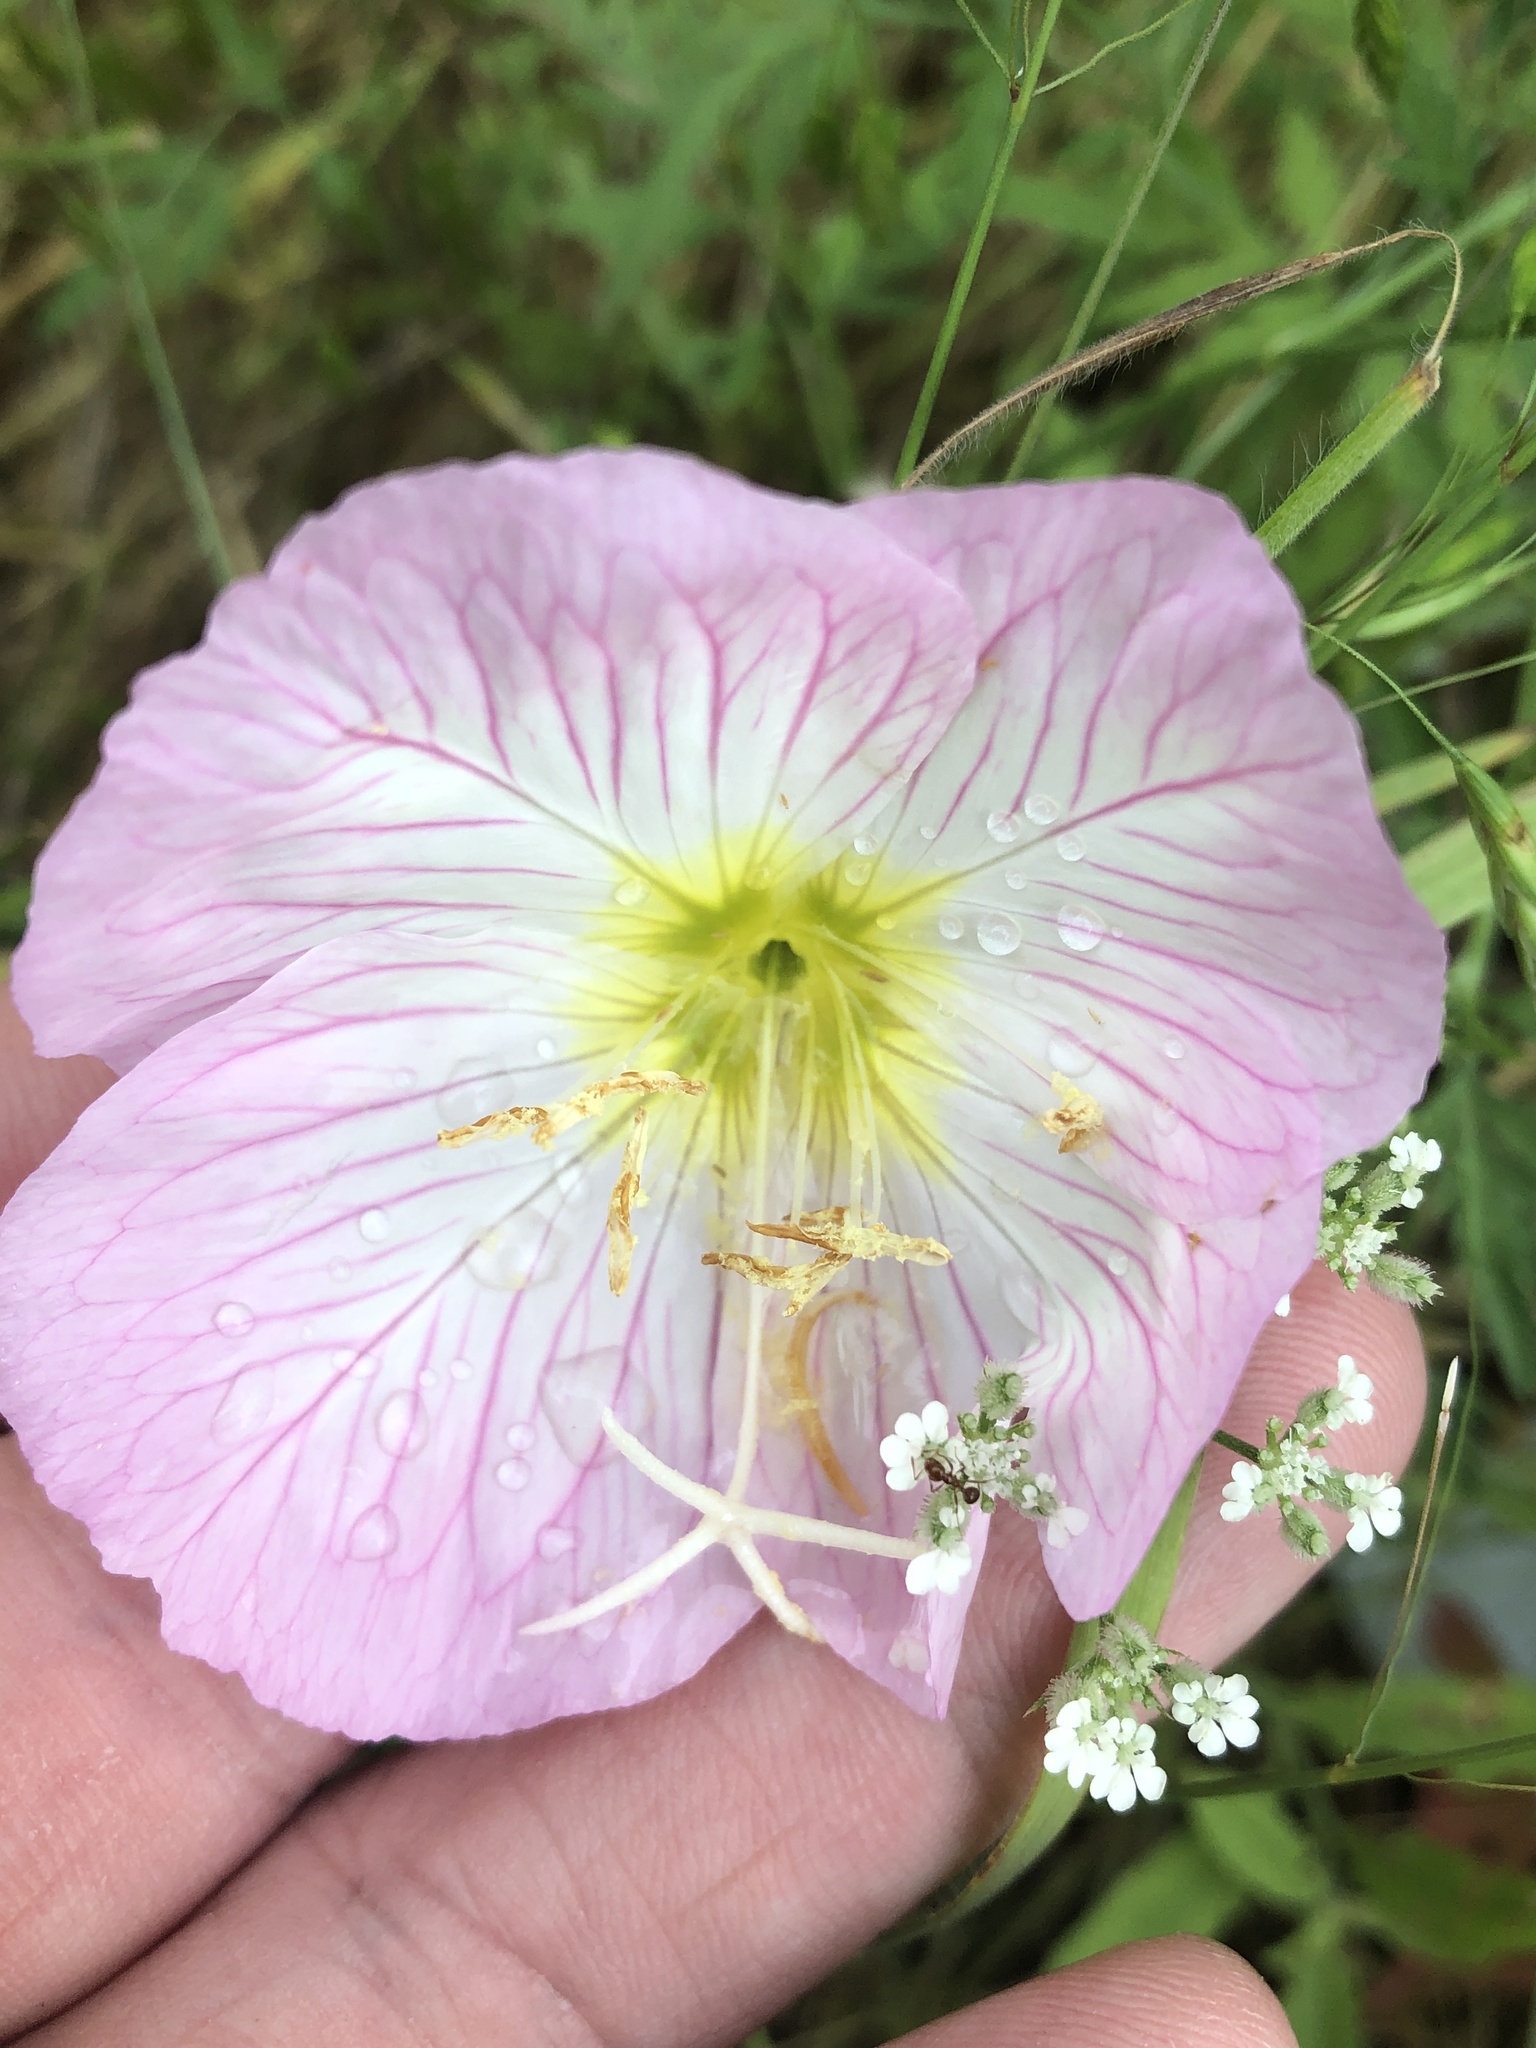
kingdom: Plantae
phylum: Tracheophyta
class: Magnoliopsida
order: Myrtales
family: Onagraceae
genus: Oenothera
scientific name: Oenothera speciosa
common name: White evening-primrose
